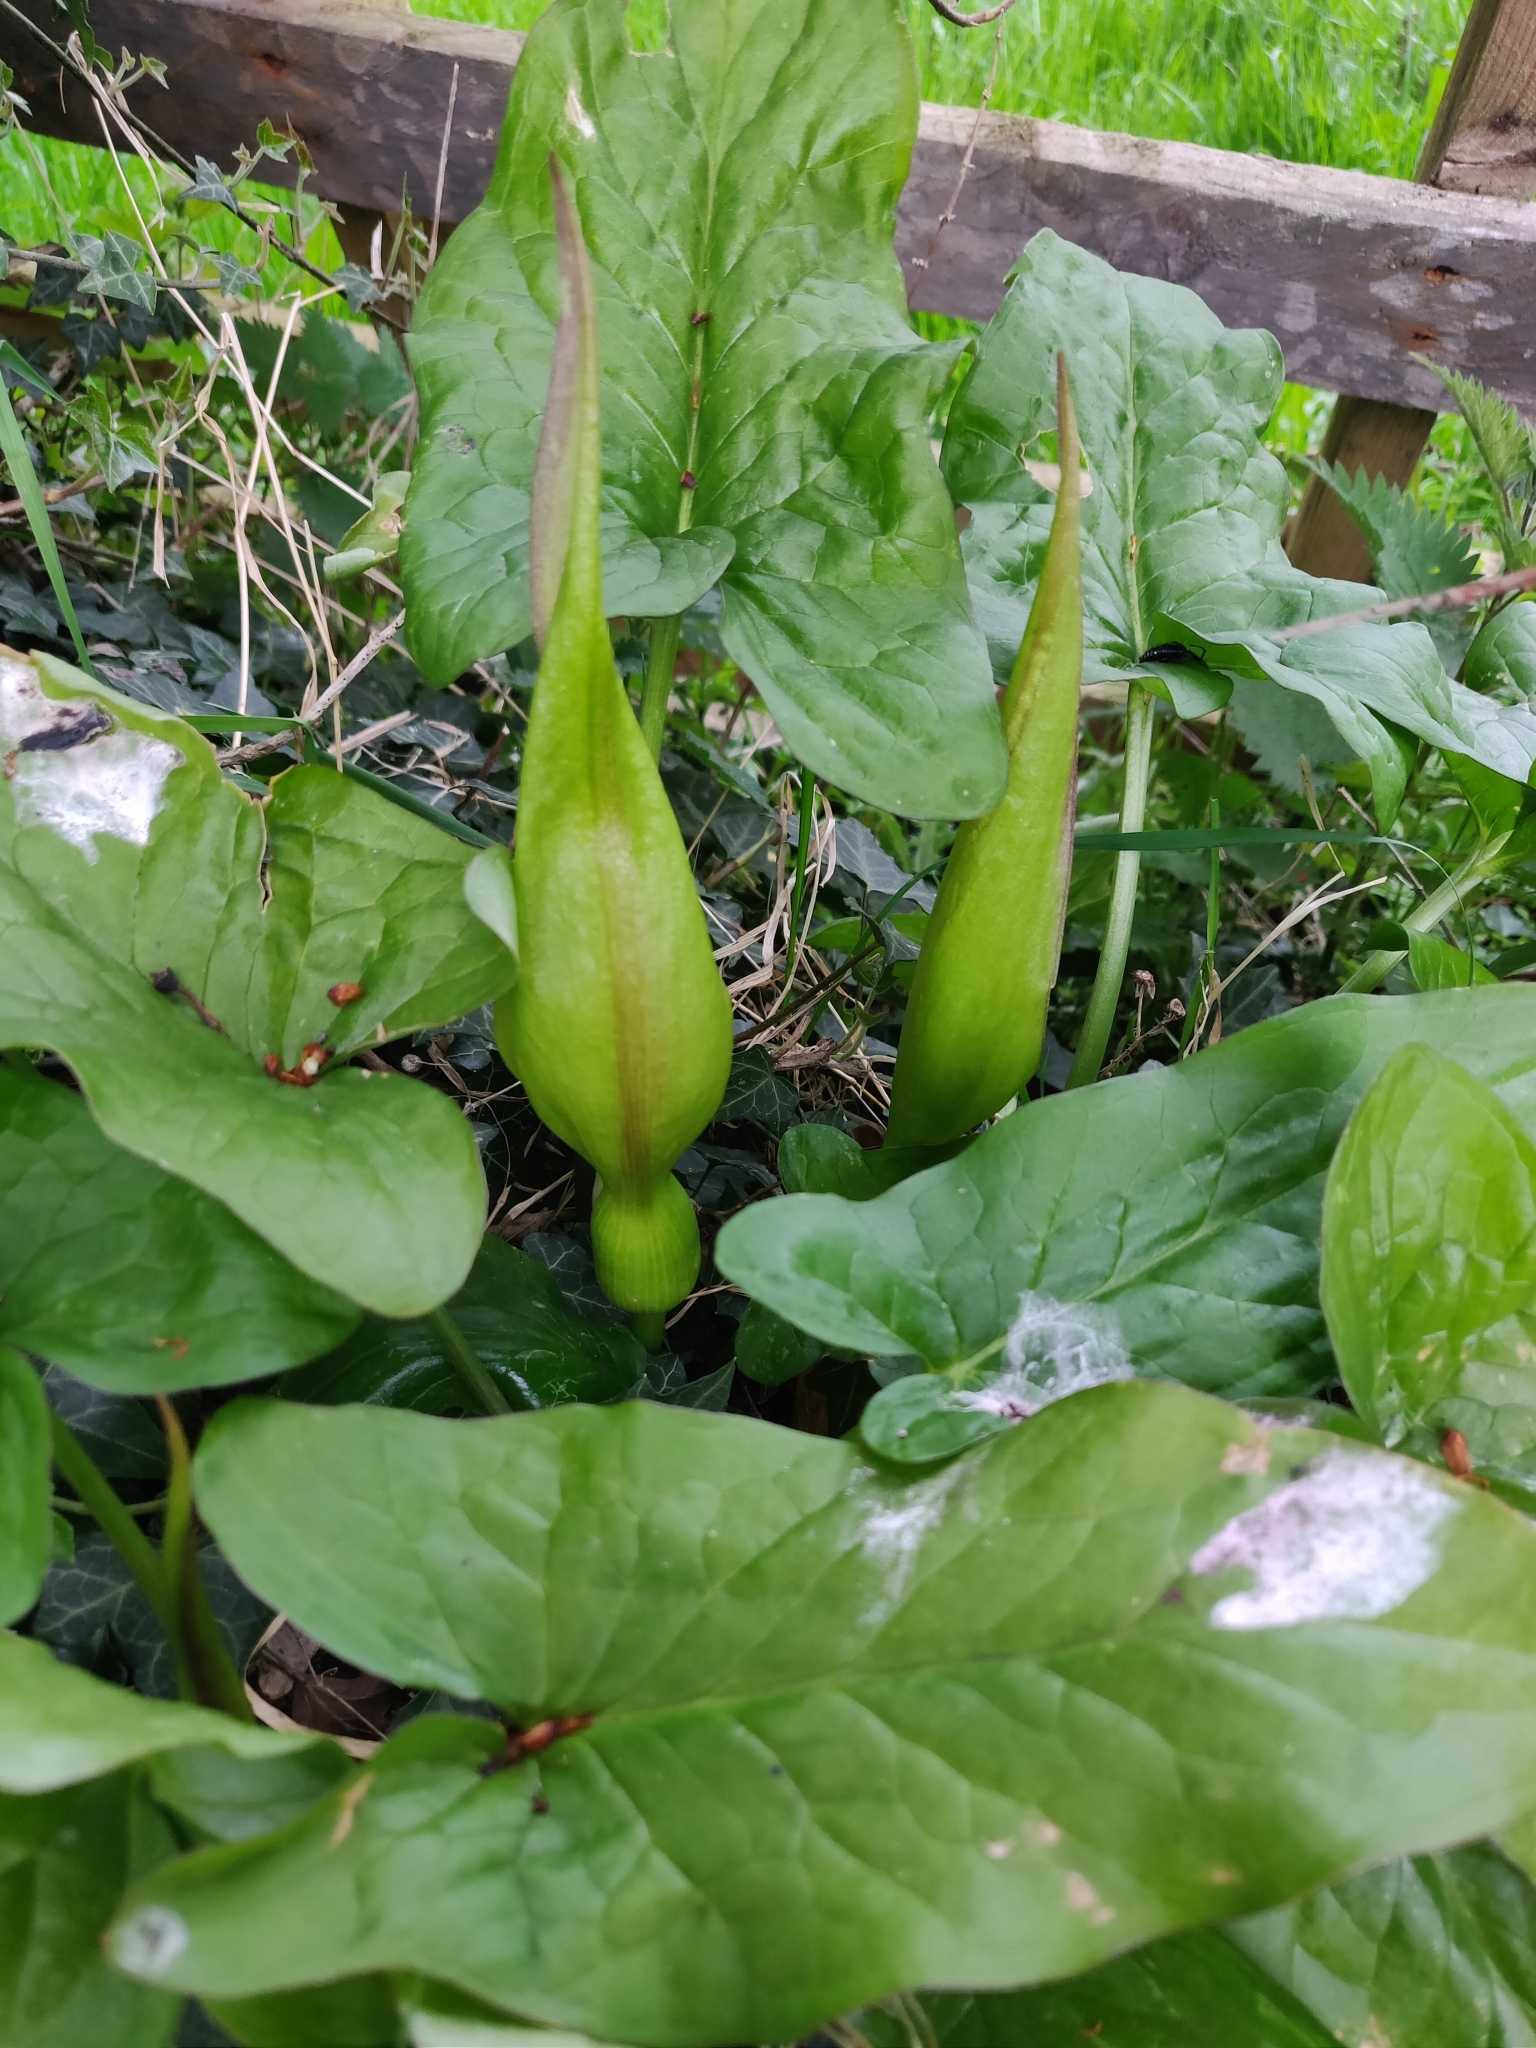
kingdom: Plantae
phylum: Tracheophyta
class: Liliopsida
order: Alismatales
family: Araceae
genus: Arum
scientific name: Arum maculatum
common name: Lords-and-ladies
